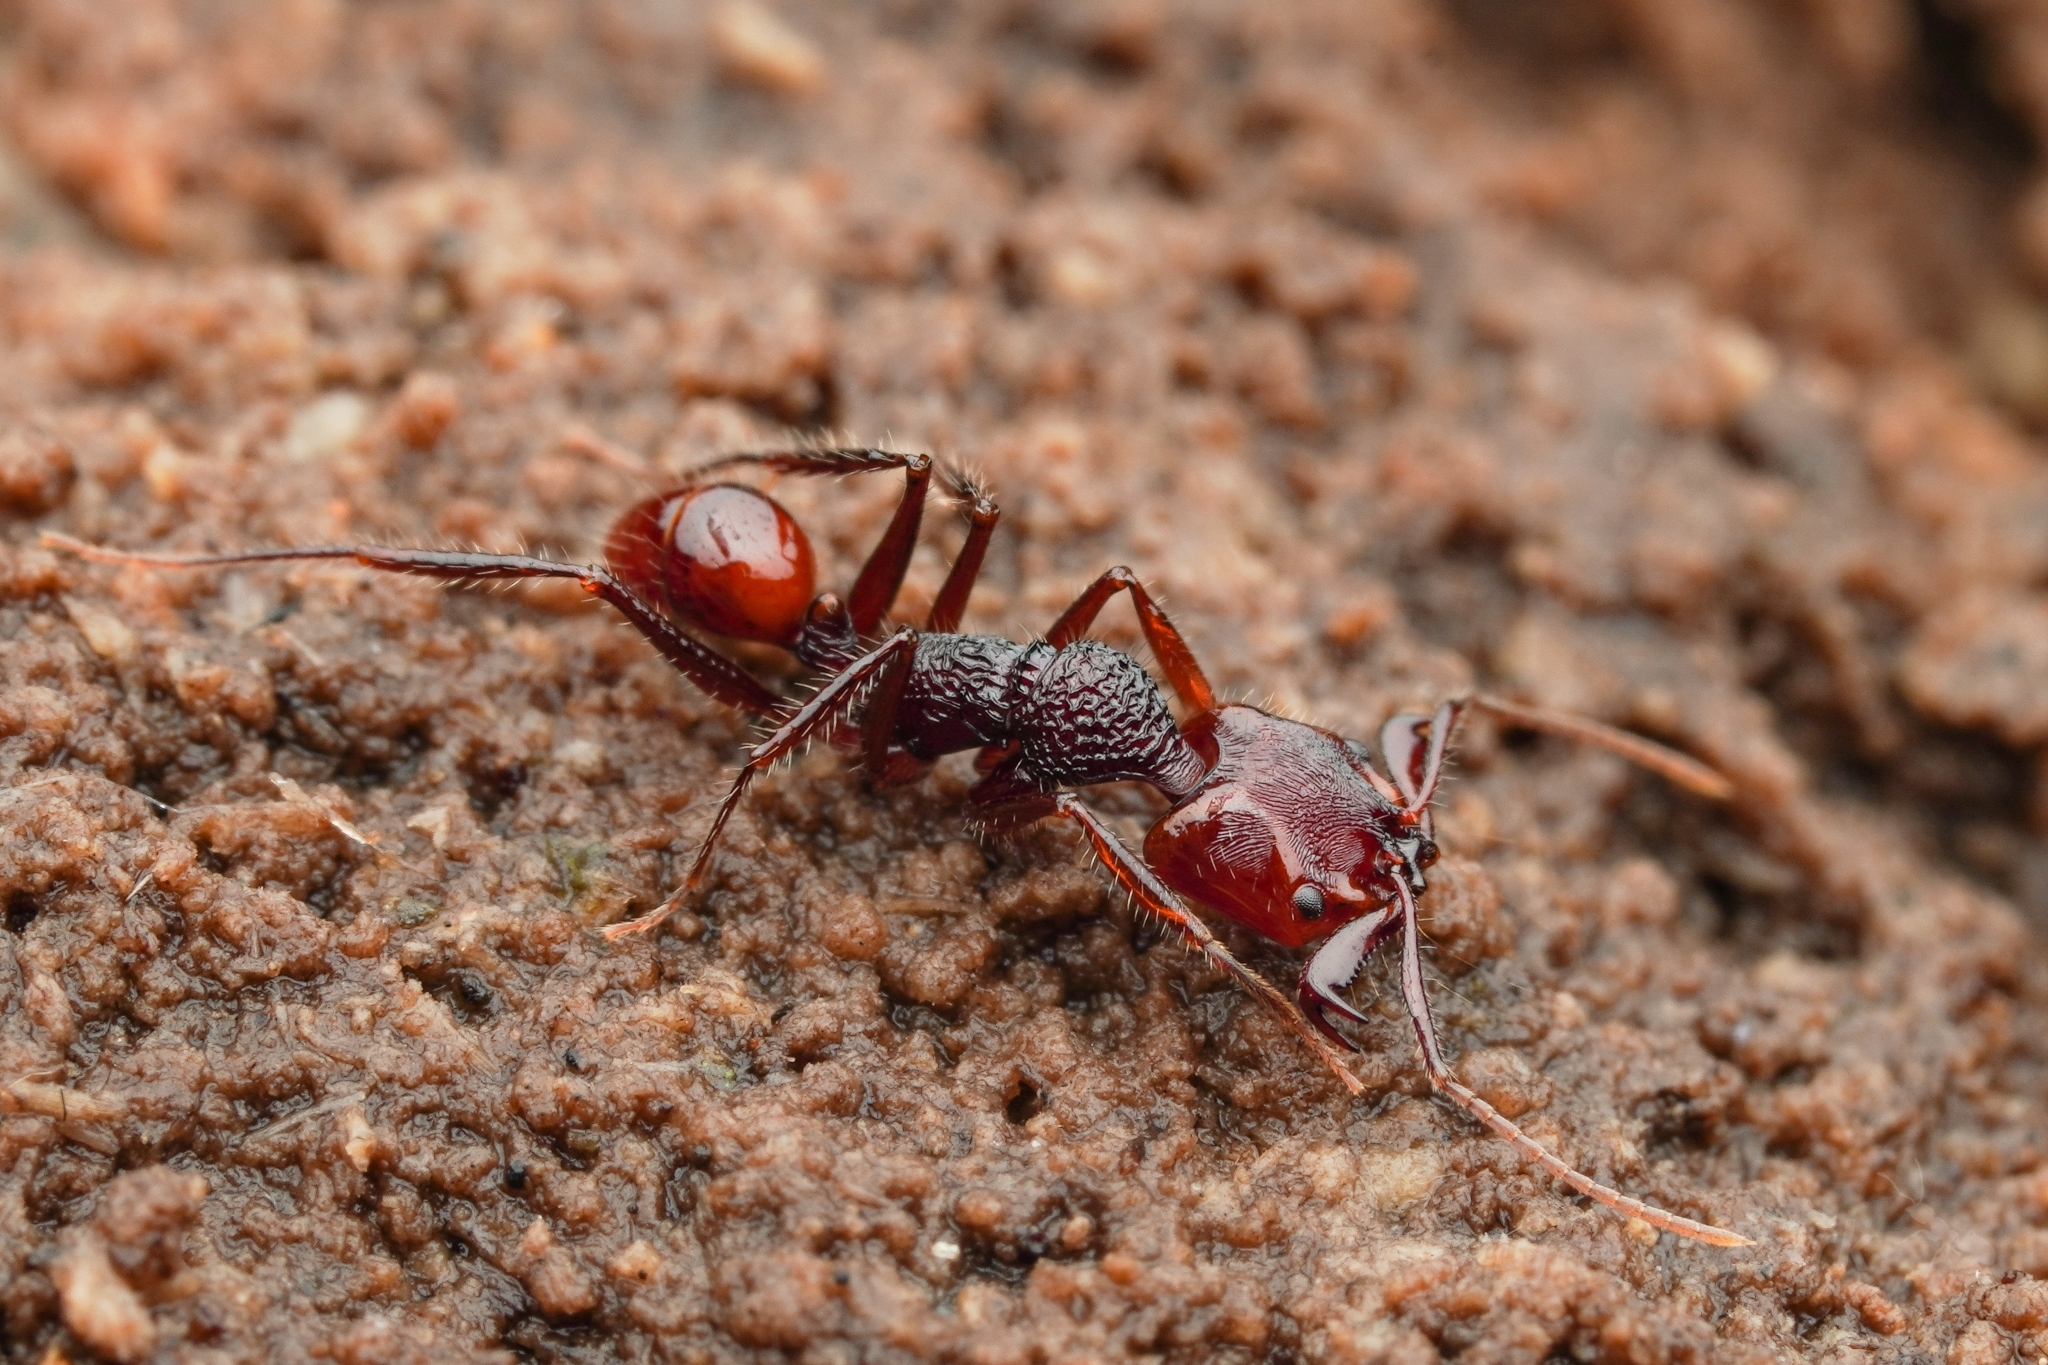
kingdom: Animalia
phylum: Arthropoda
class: Insecta
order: Hymenoptera
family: Formicidae
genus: Anochetus
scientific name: Anochetus rugosus
